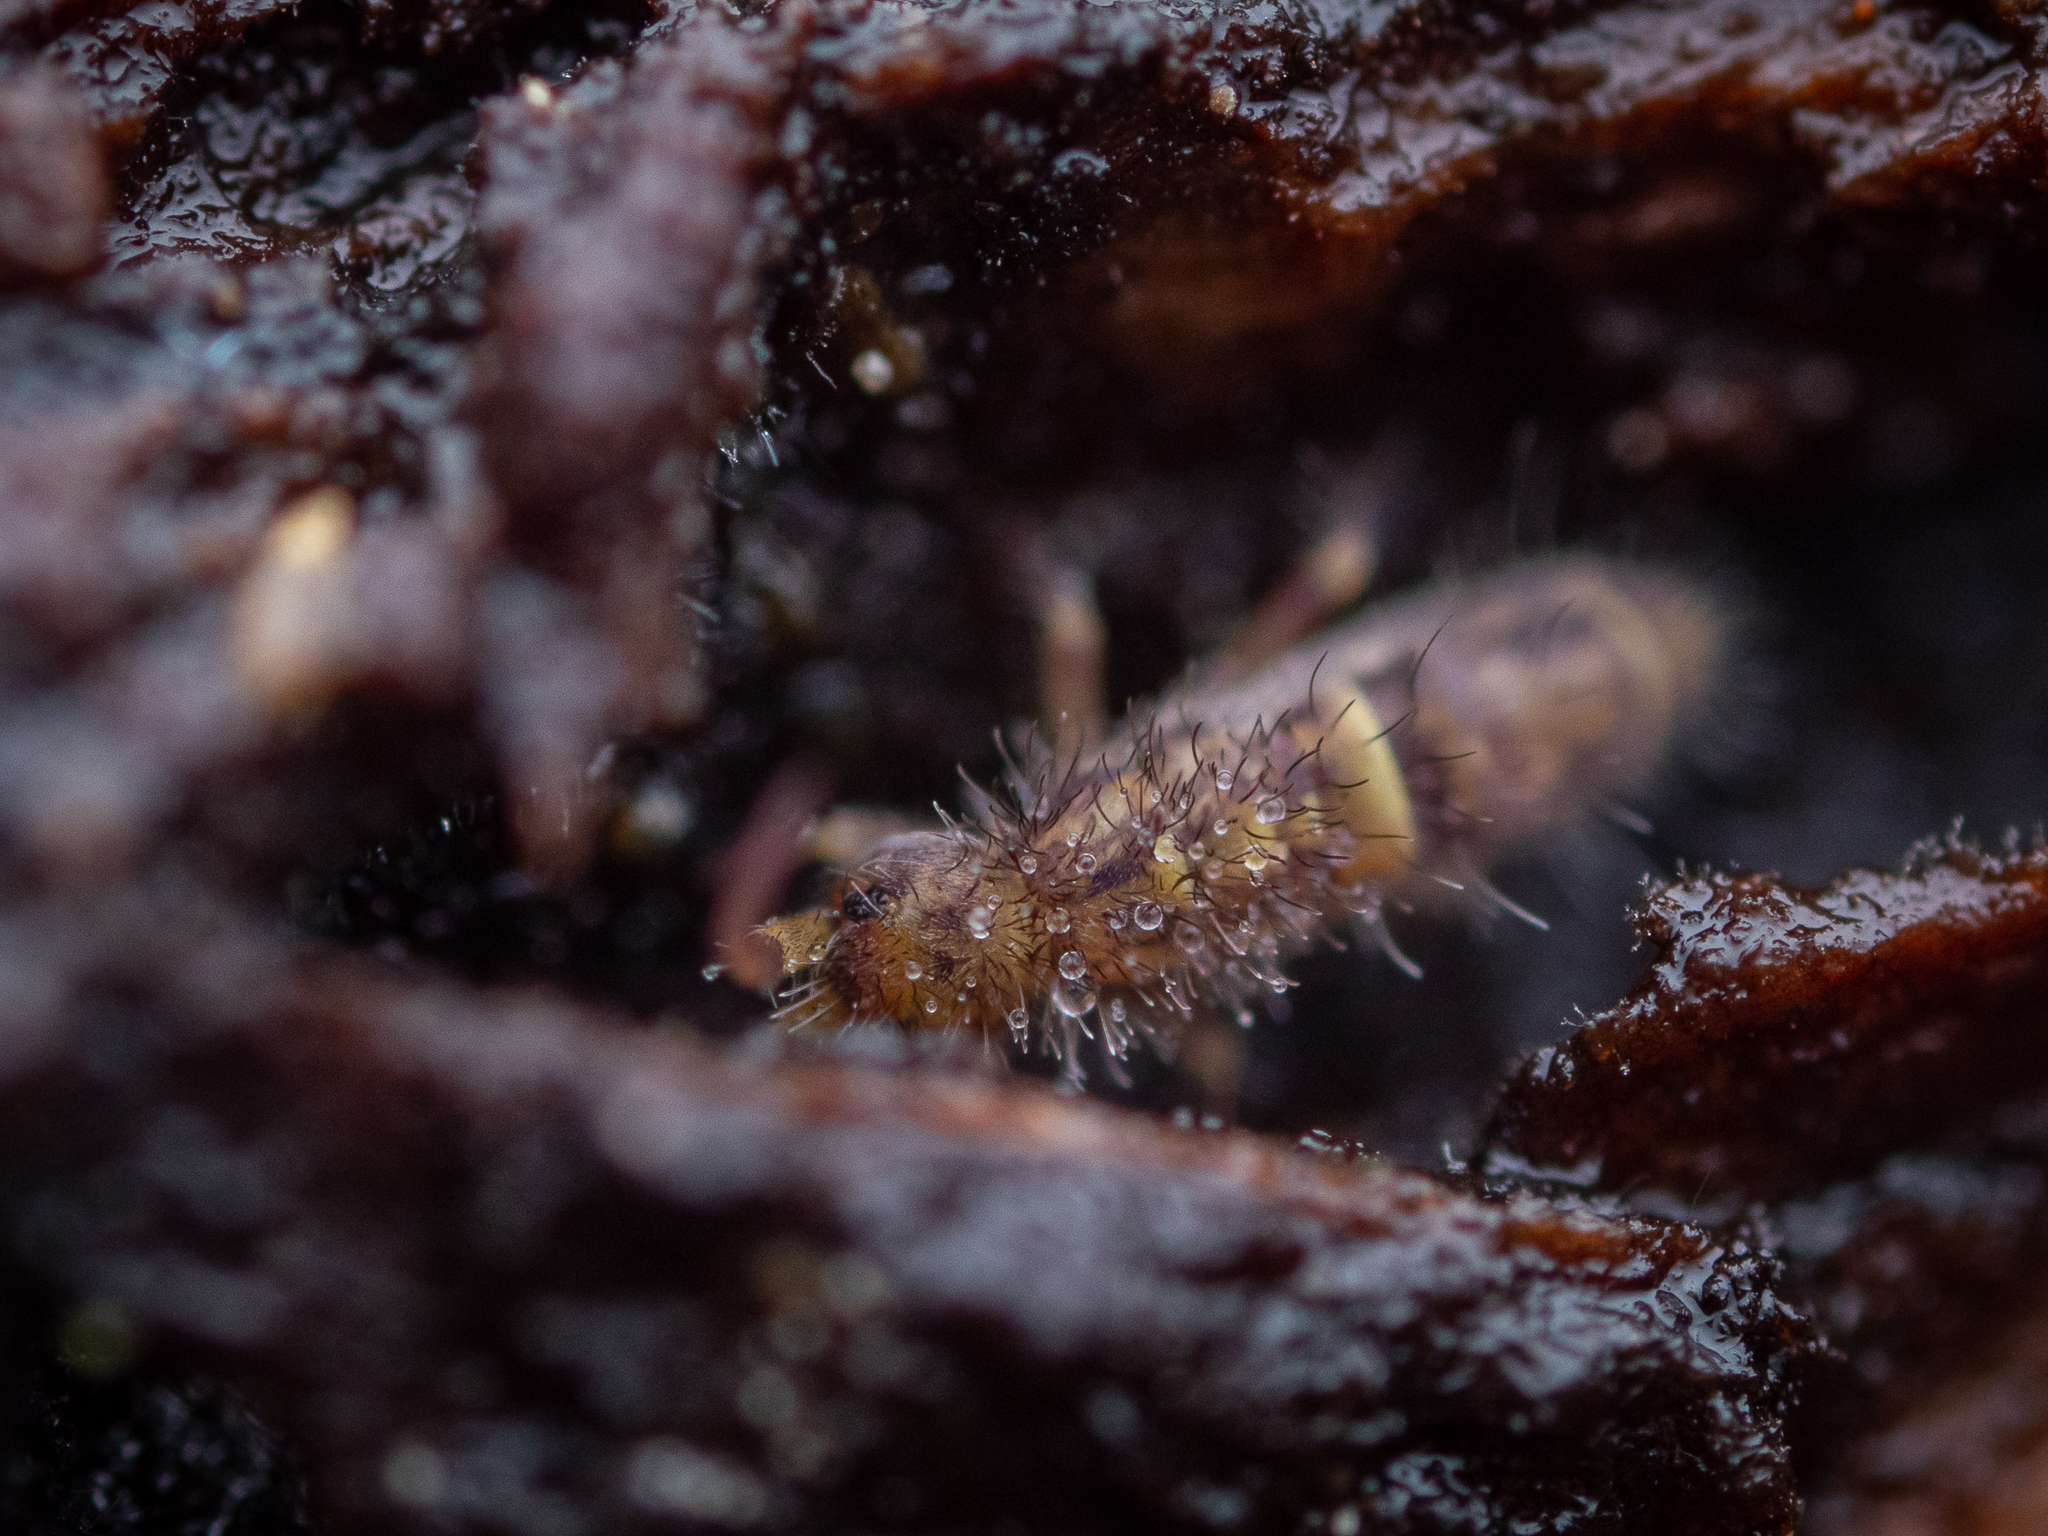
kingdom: Animalia
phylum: Arthropoda
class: Collembola
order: Entomobryomorpha
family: Orchesellidae
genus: Orchesella
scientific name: Orchesella cincta
